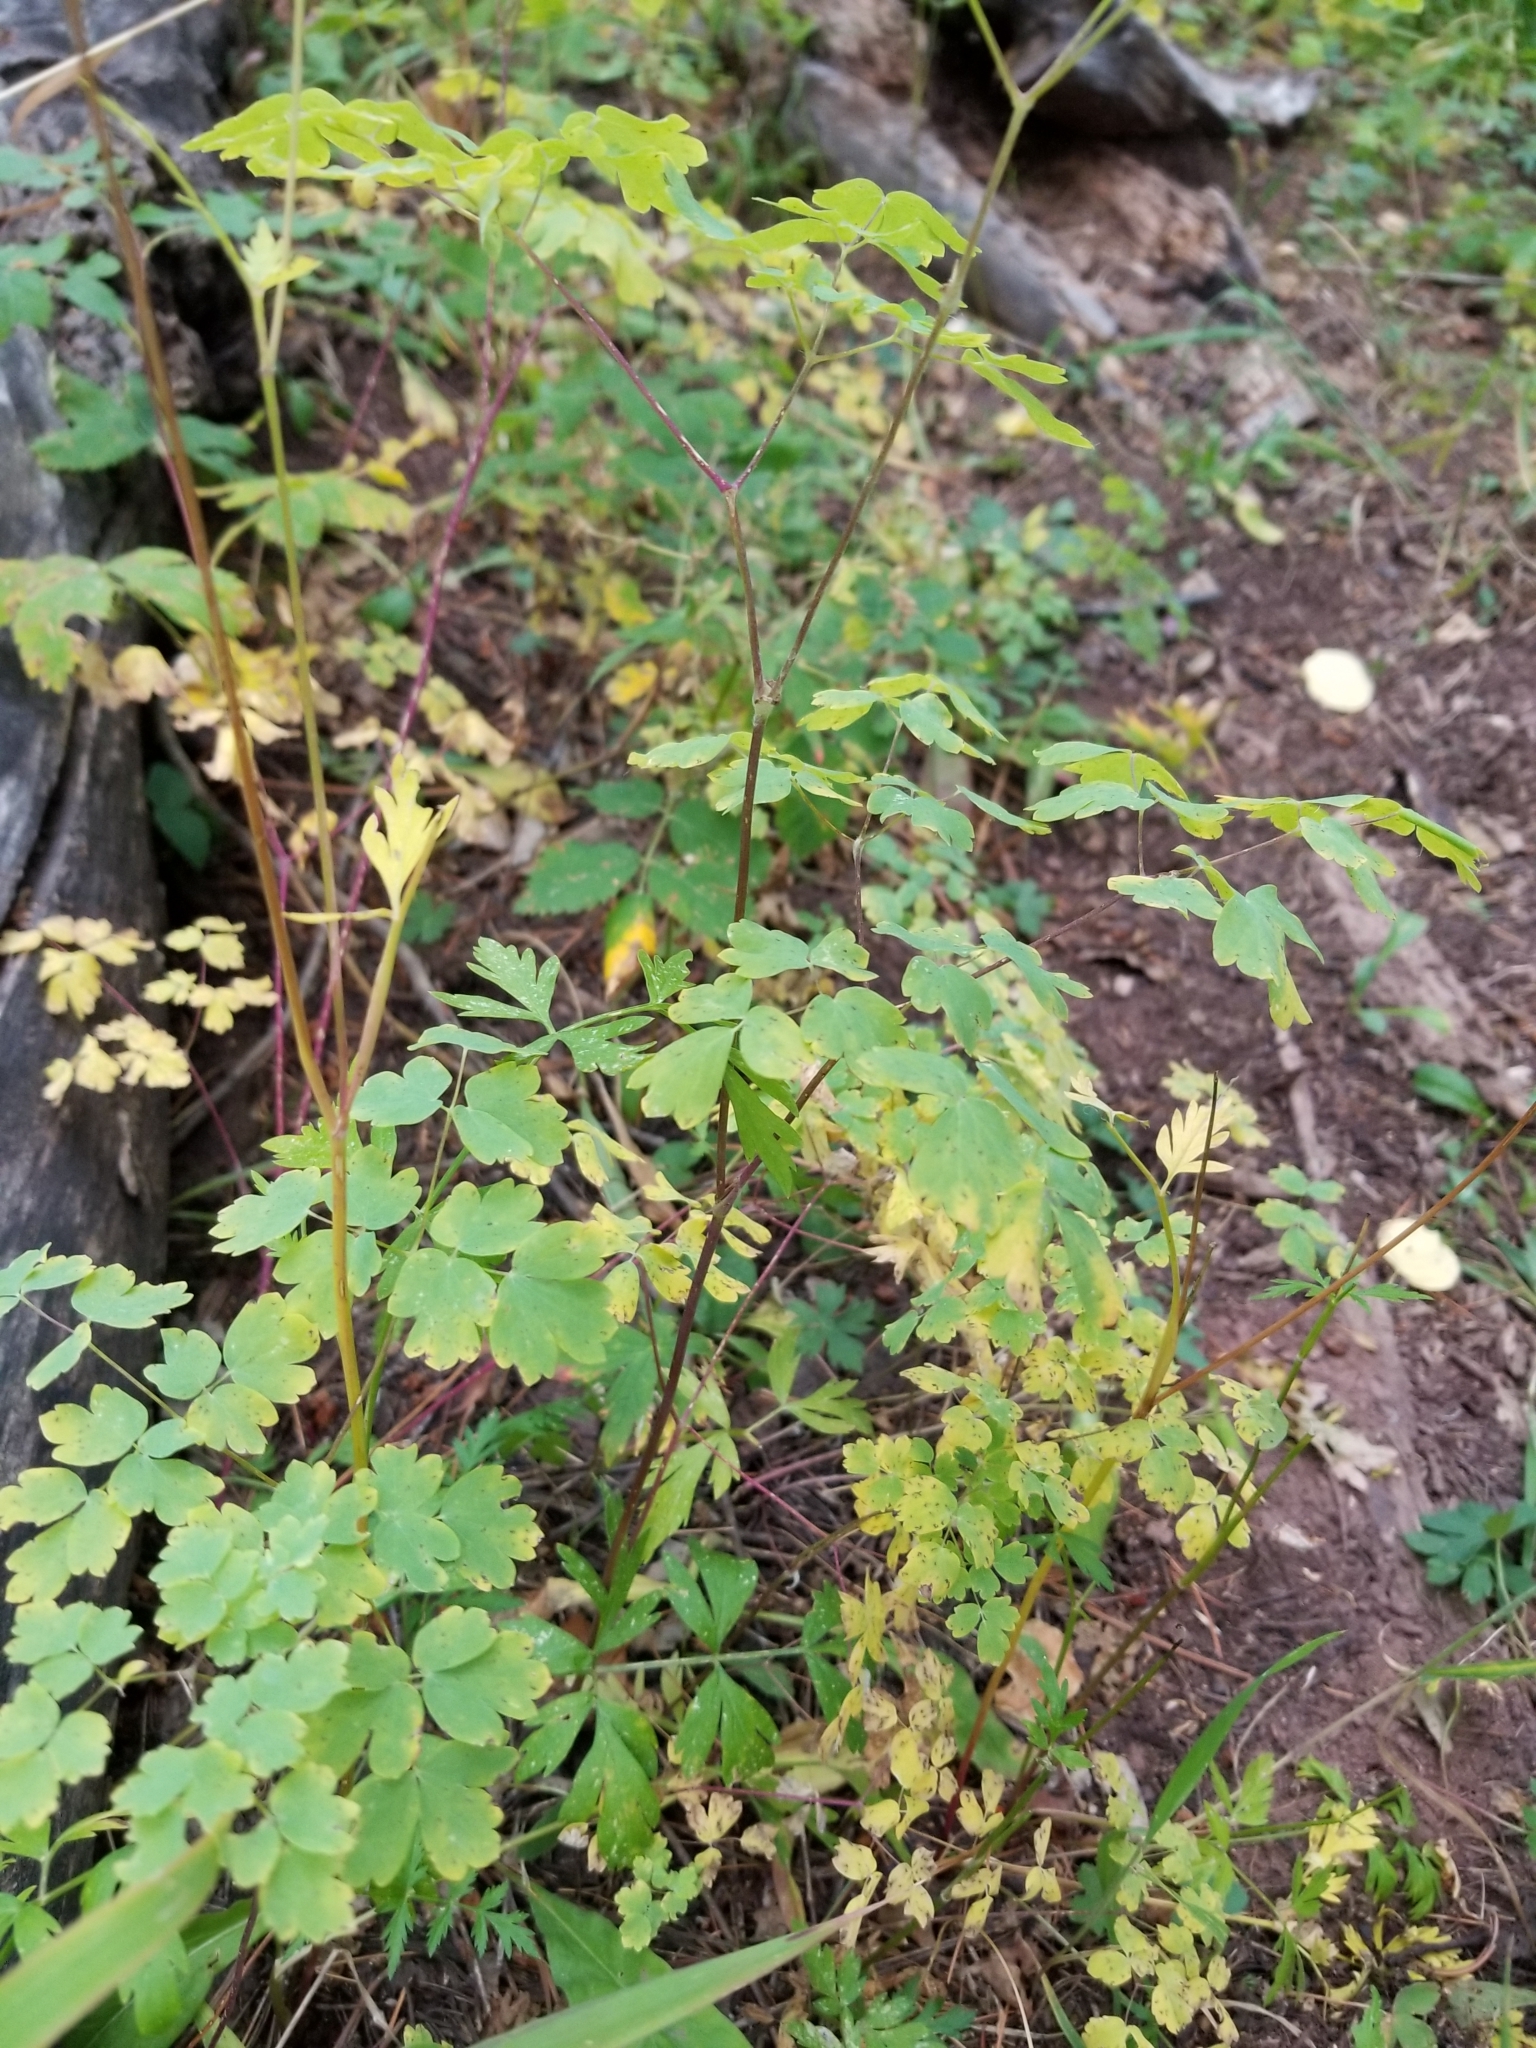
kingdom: Plantae
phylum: Tracheophyta
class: Magnoliopsida
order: Ranunculales
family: Ranunculaceae
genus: Thalictrum
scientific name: Thalictrum fendleri
